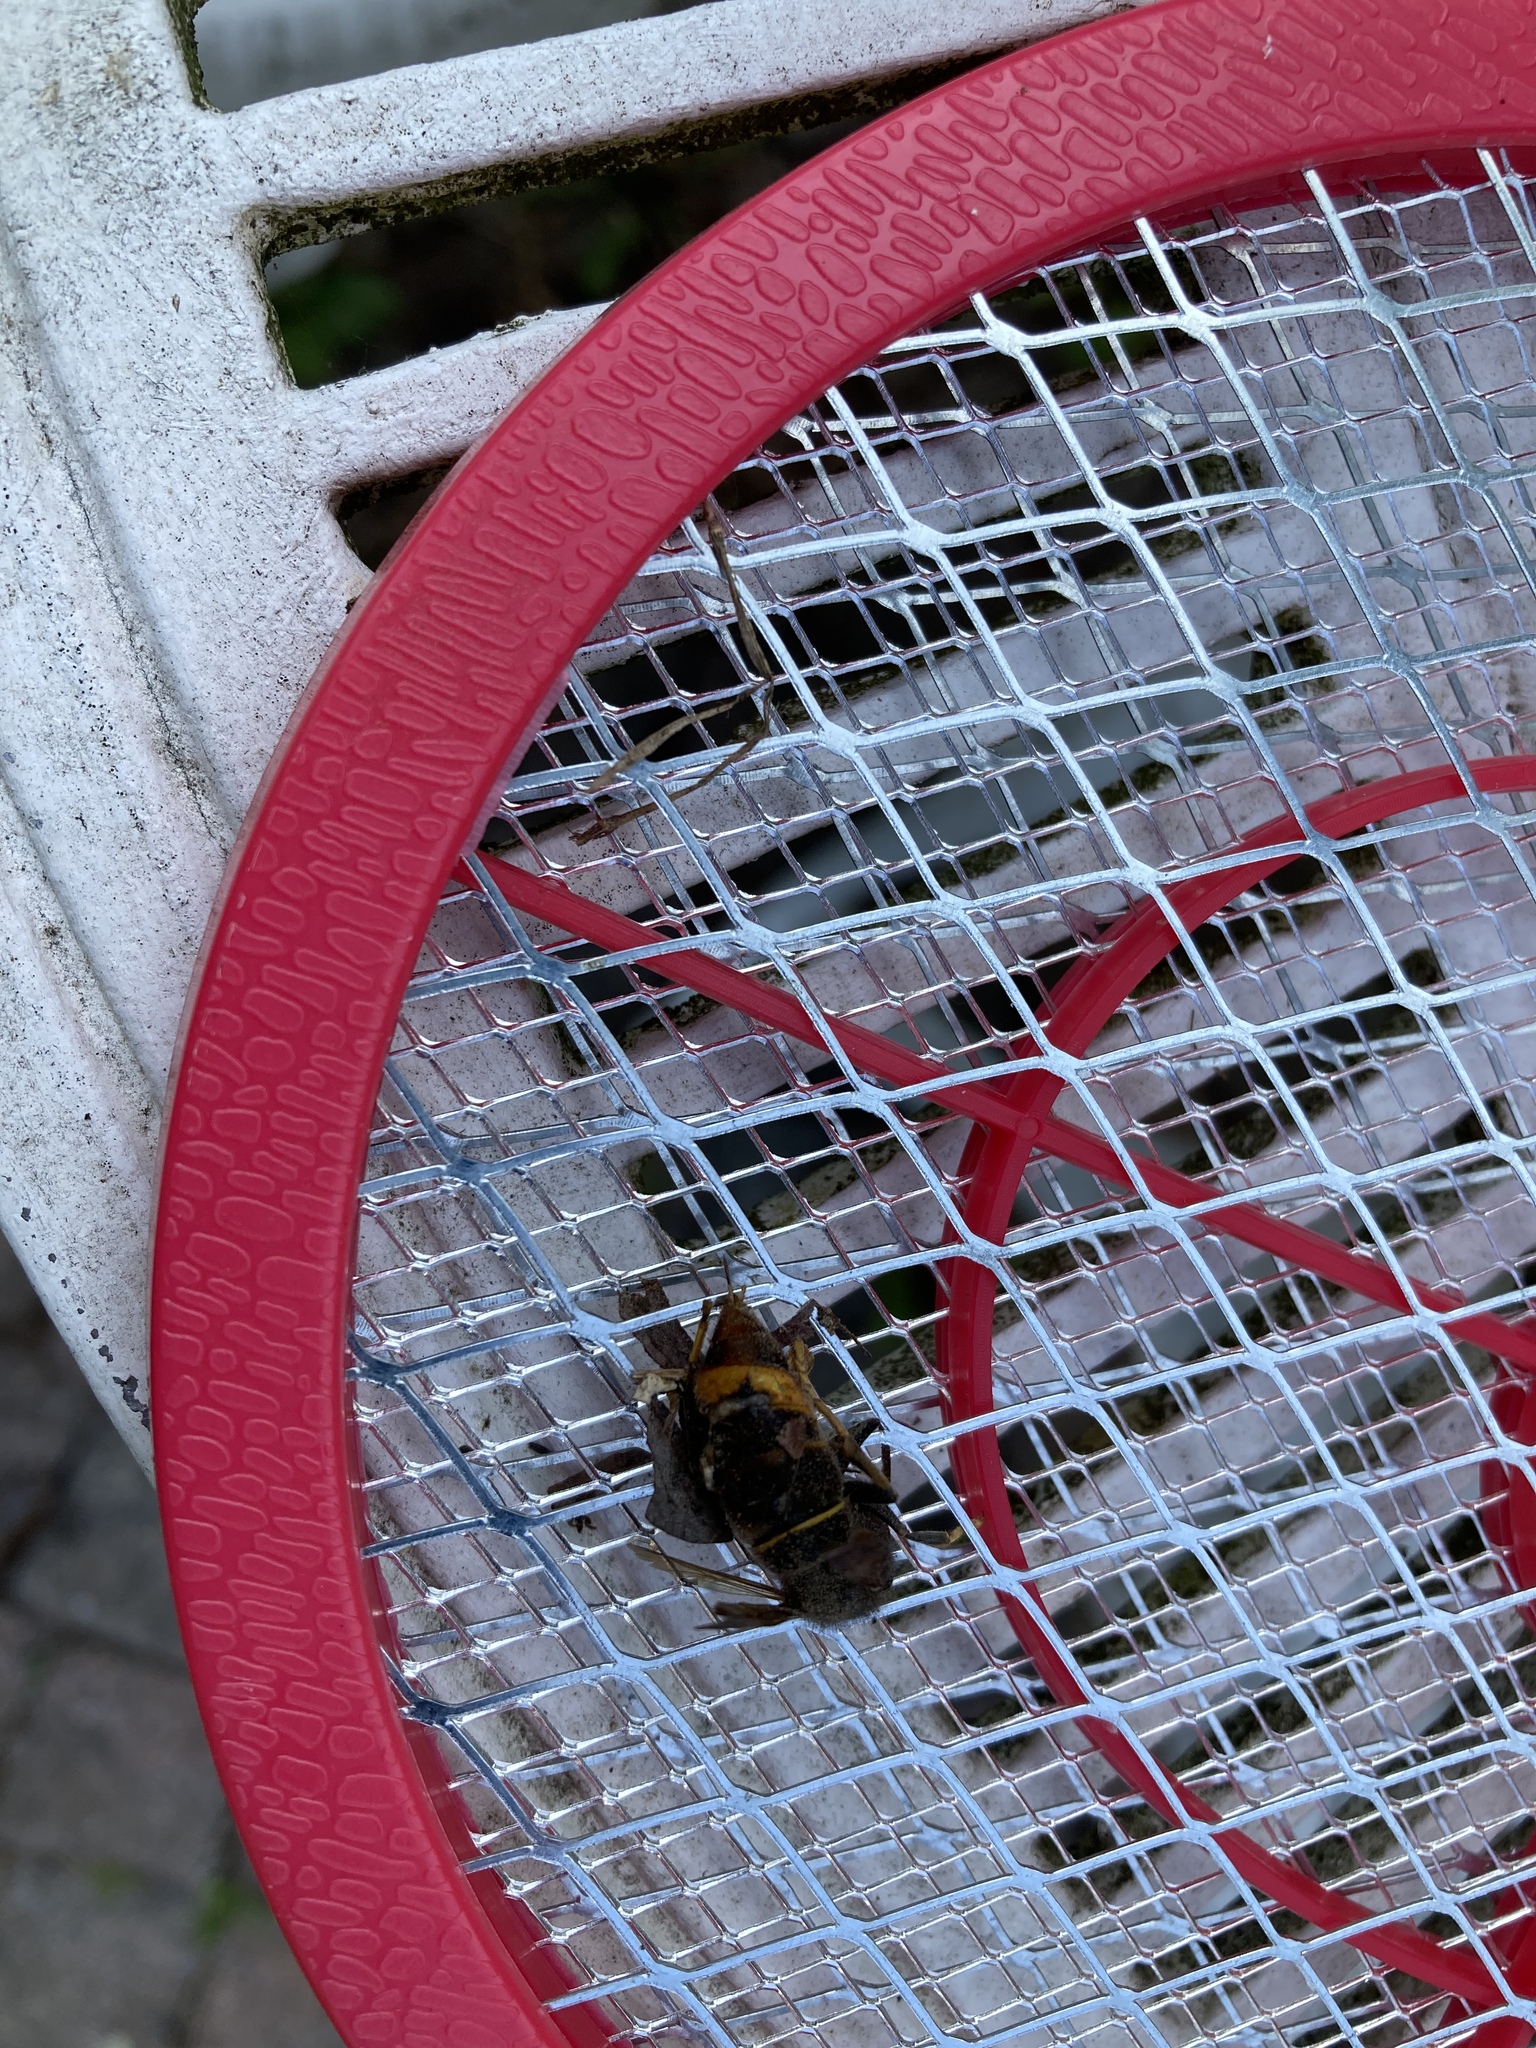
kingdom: Animalia
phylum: Arthropoda
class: Insecta
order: Hymenoptera
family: Vespidae
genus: Vespa
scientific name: Vespa velutina
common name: Asian hornet
